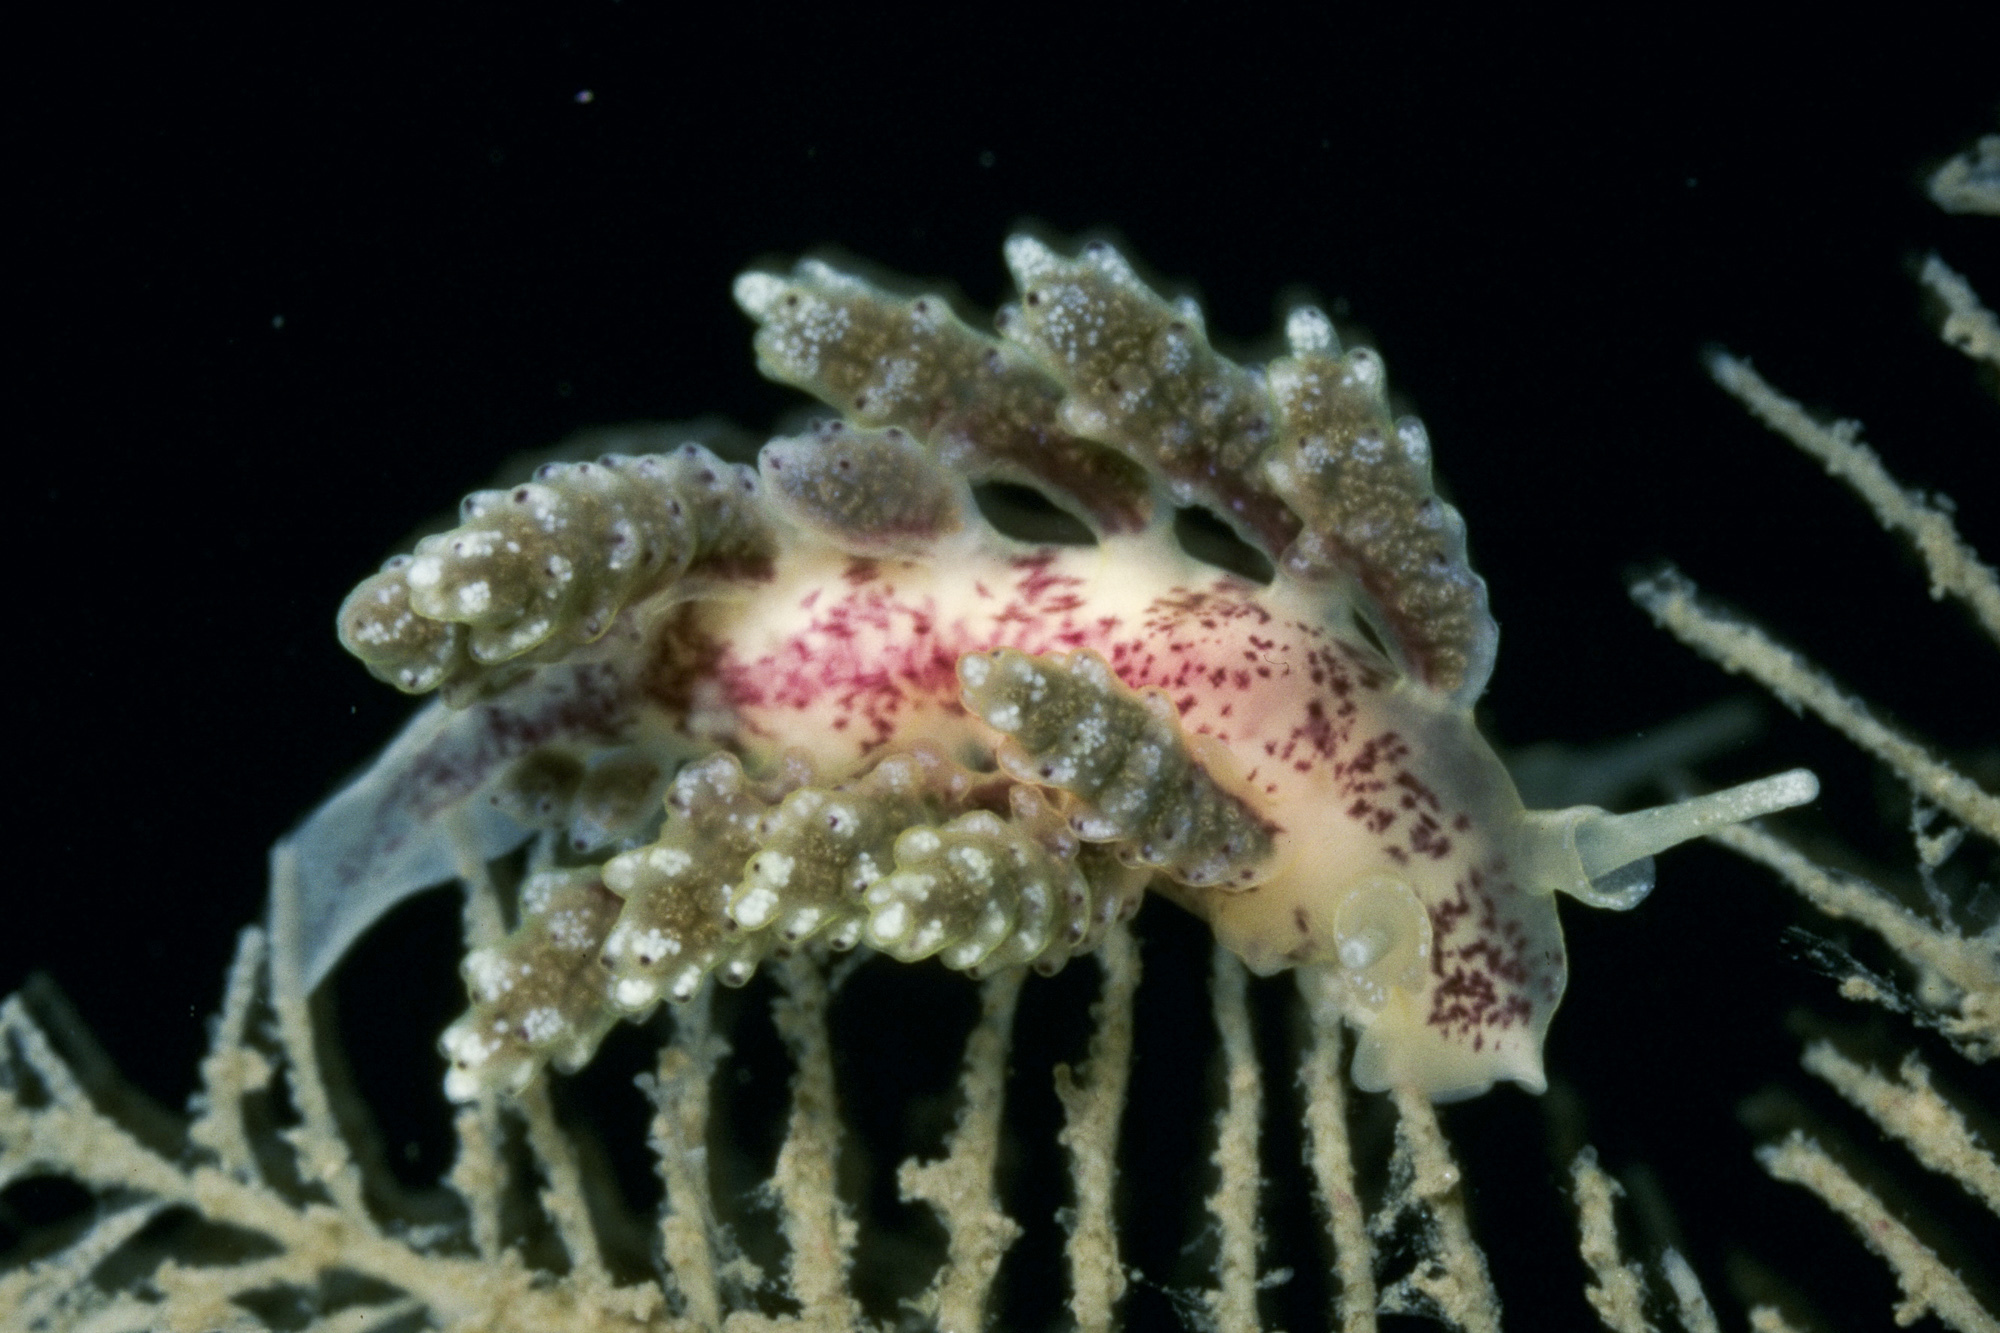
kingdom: Animalia
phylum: Mollusca
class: Gastropoda
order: Nudibranchia
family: Dotidae
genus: Doto
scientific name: Doto hydrallmaniae
